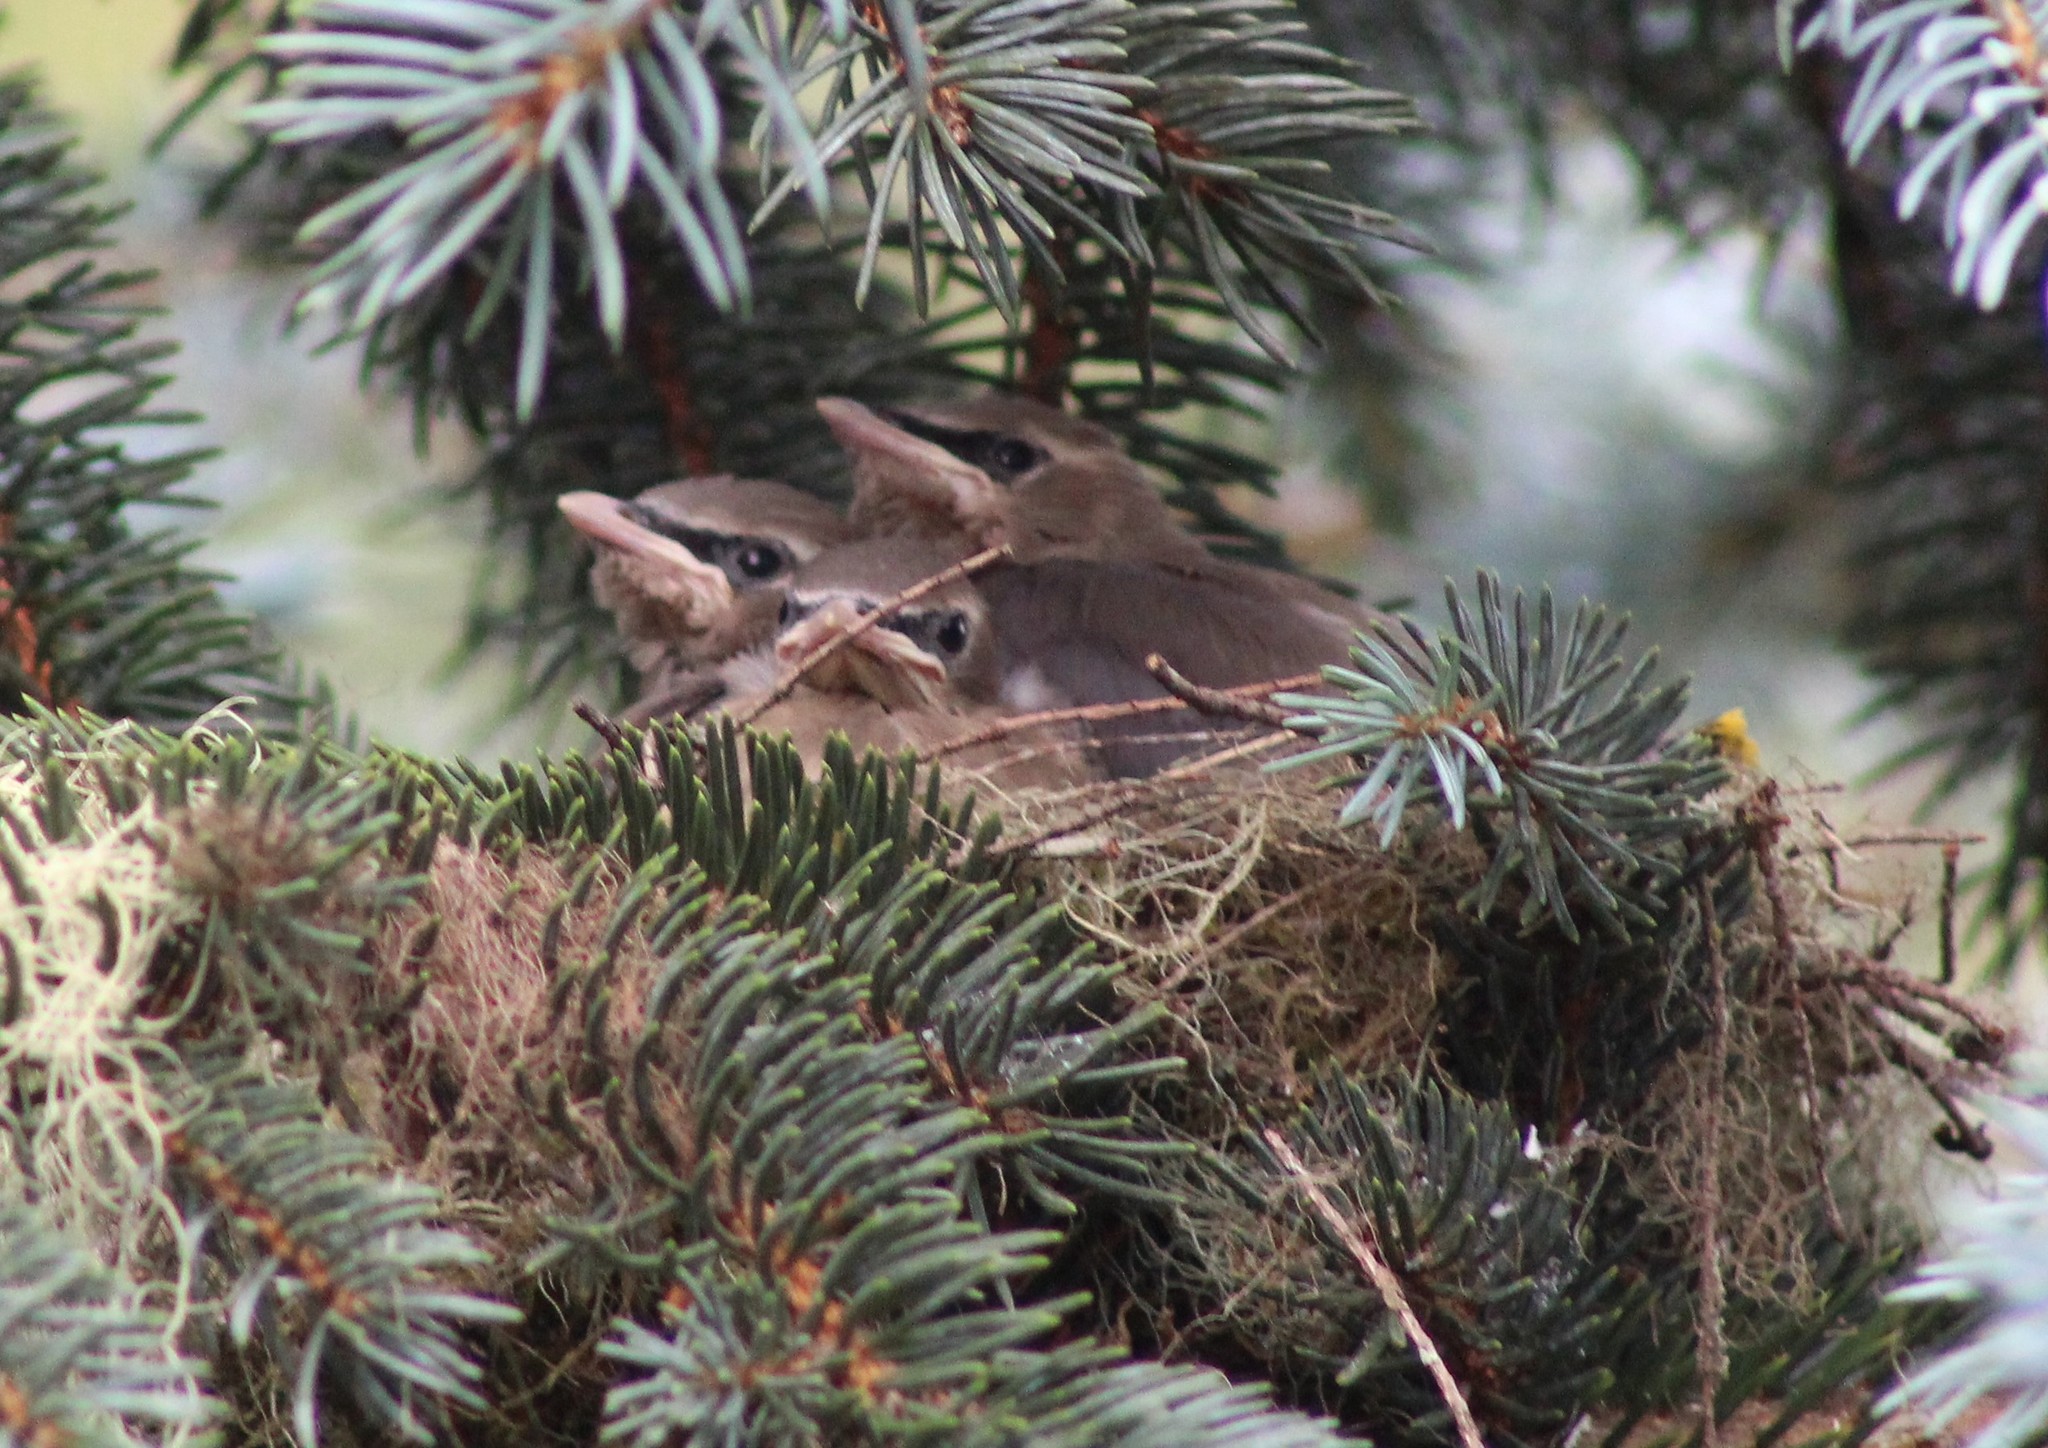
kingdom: Animalia
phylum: Chordata
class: Aves
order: Passeriformes
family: Bombycillidae
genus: Bombycilla
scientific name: Bombycilla cedrorum
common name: Cedar waxwing
